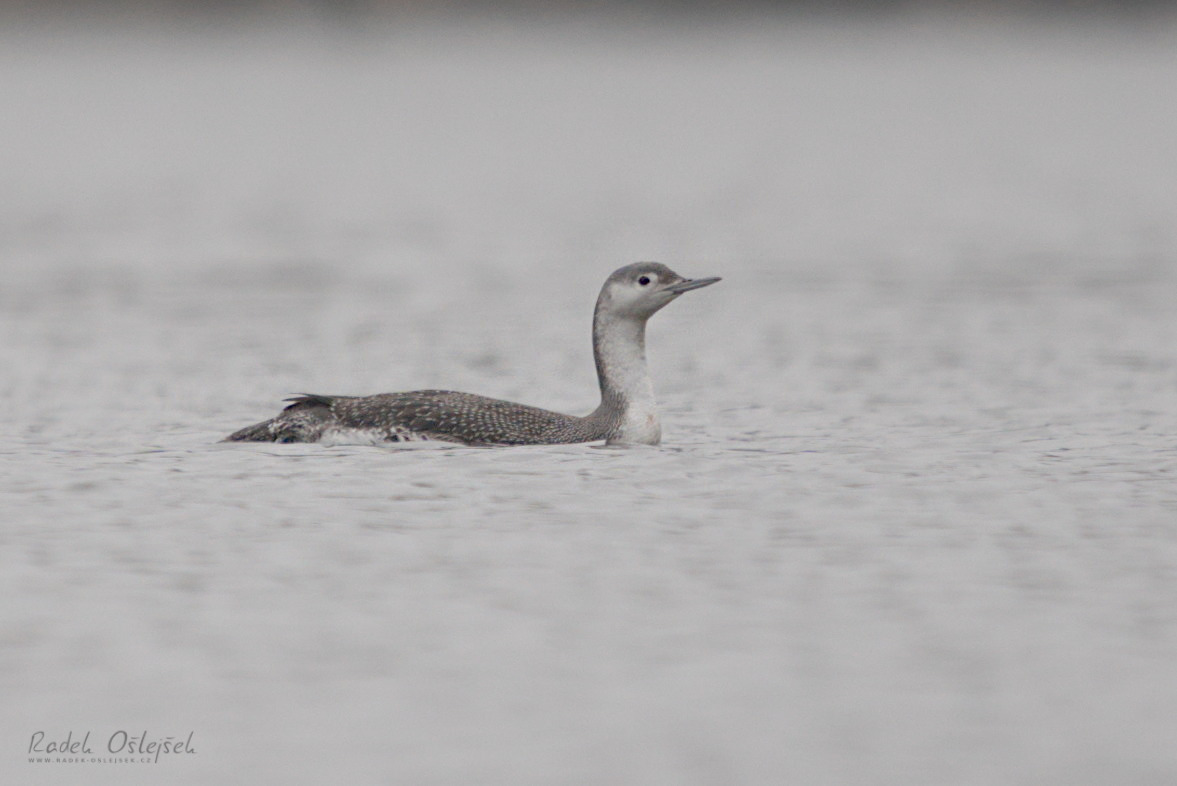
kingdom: Animalia
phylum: Chordata
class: Aves
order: Gaviiformes
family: Gaviidae
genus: Gavia
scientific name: Gavia stellata
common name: Red-throated loon
